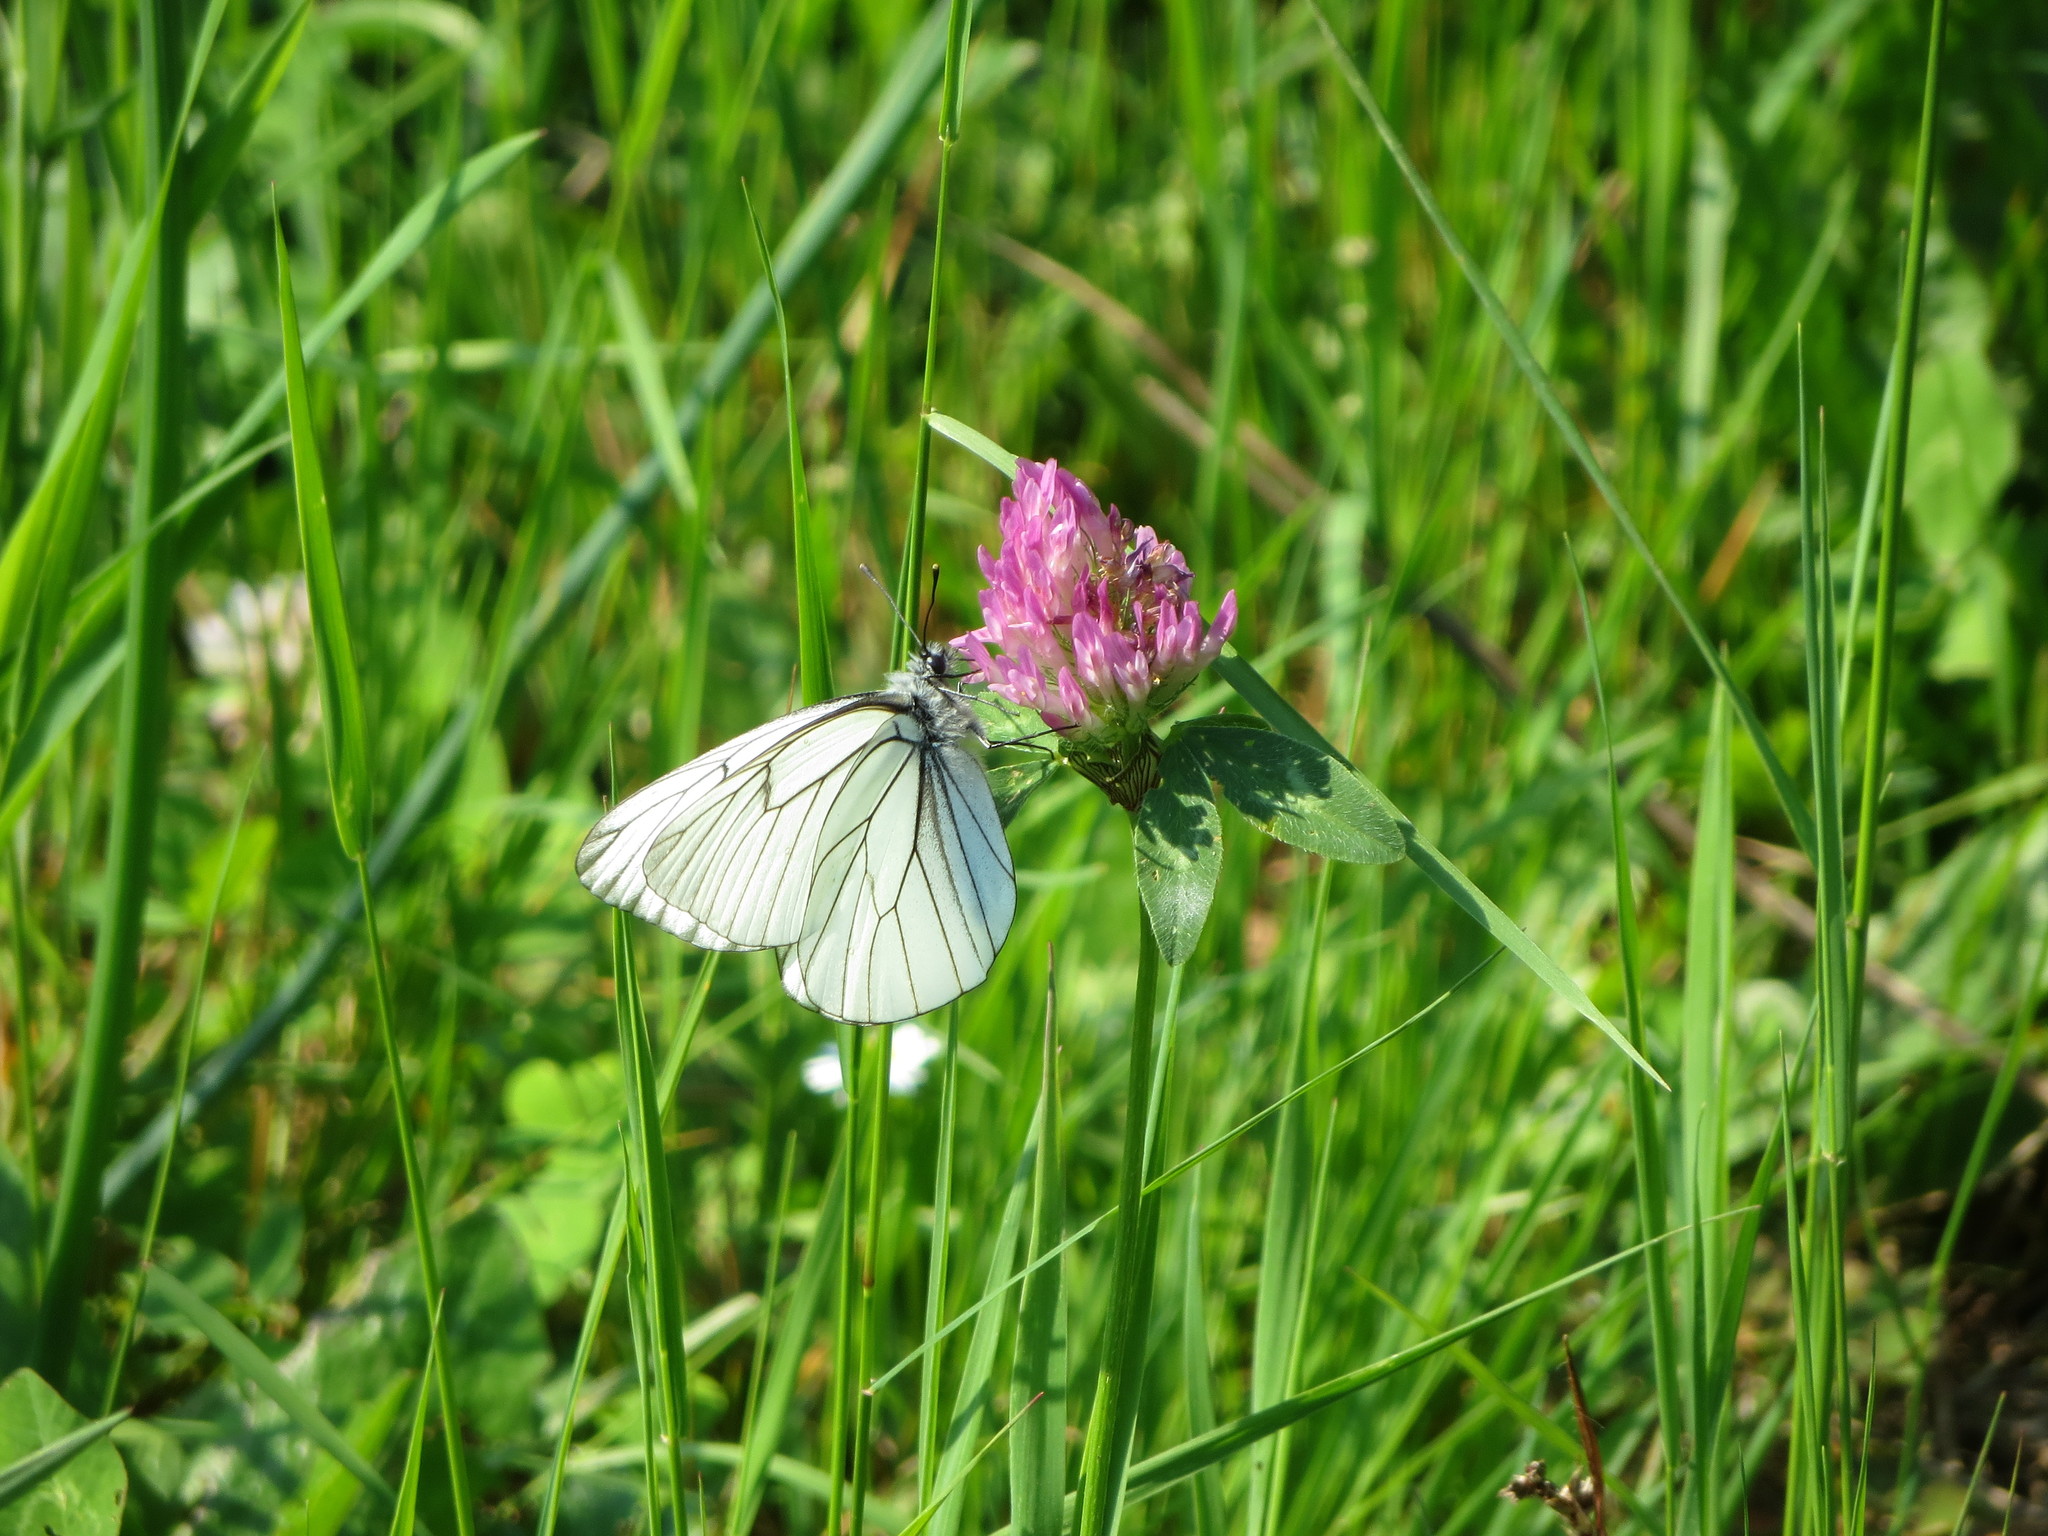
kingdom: Animalia
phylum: Arthropoda
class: Insecta
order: Lepidoptera
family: Pieridae
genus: Aporia
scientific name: Aporia crataegi
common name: Black-veined white
